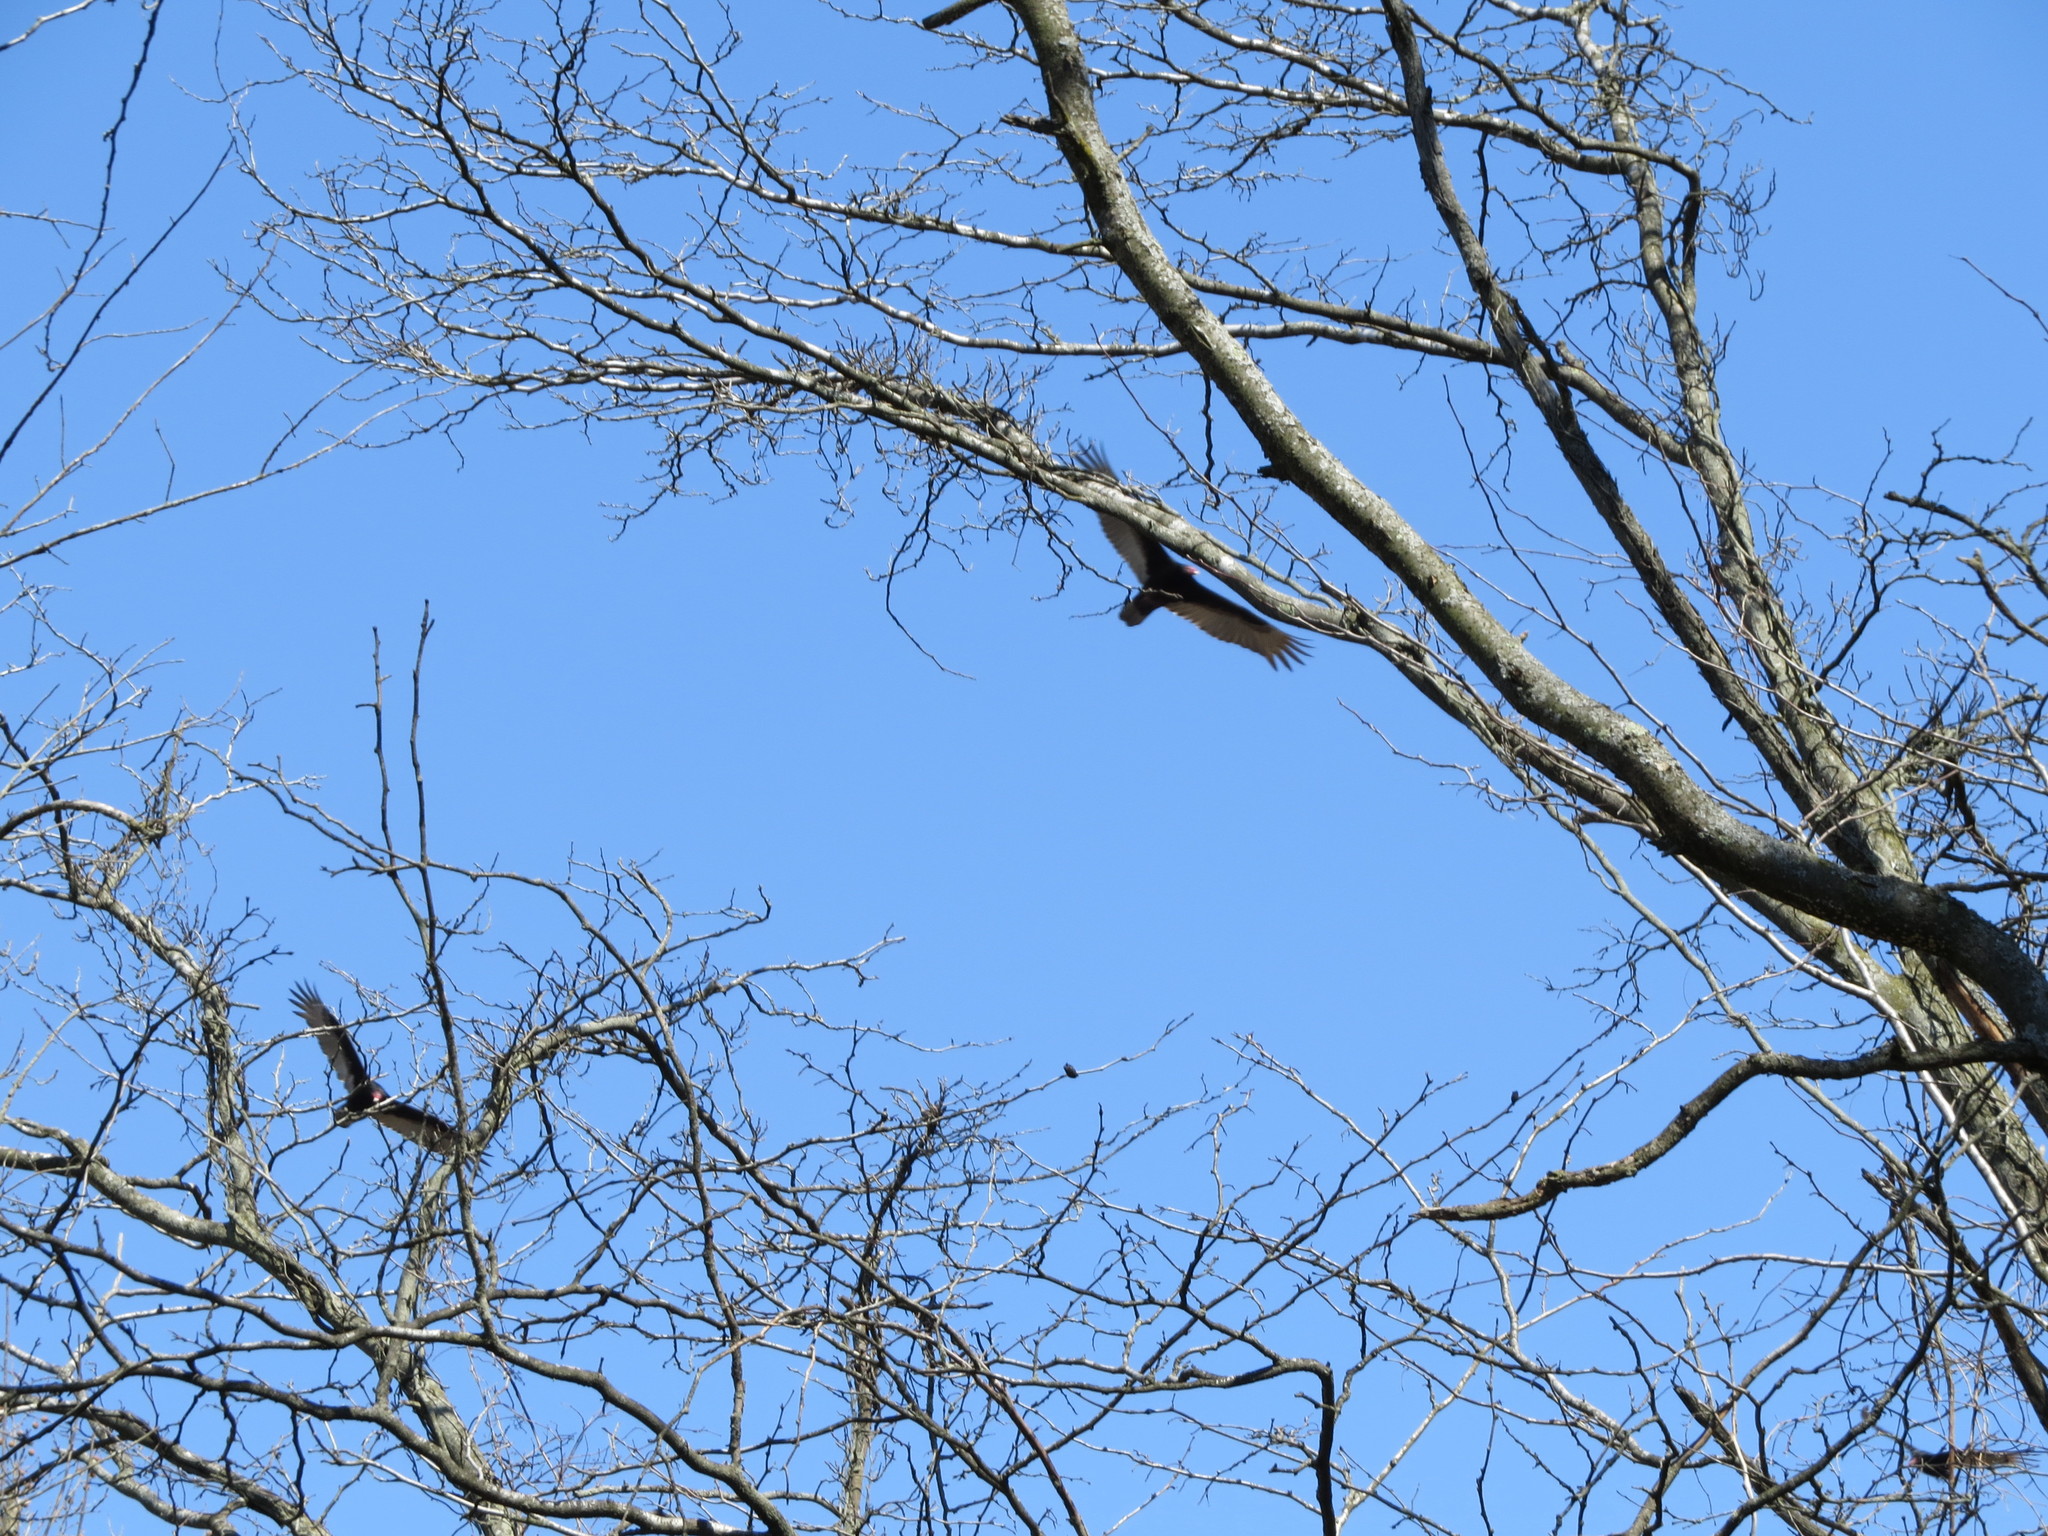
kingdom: Animalia
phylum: Chordata
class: Aves
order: Accipitriformes
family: Cathartidae
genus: Cathartes
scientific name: Cathartes aura
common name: Turkey vulture
